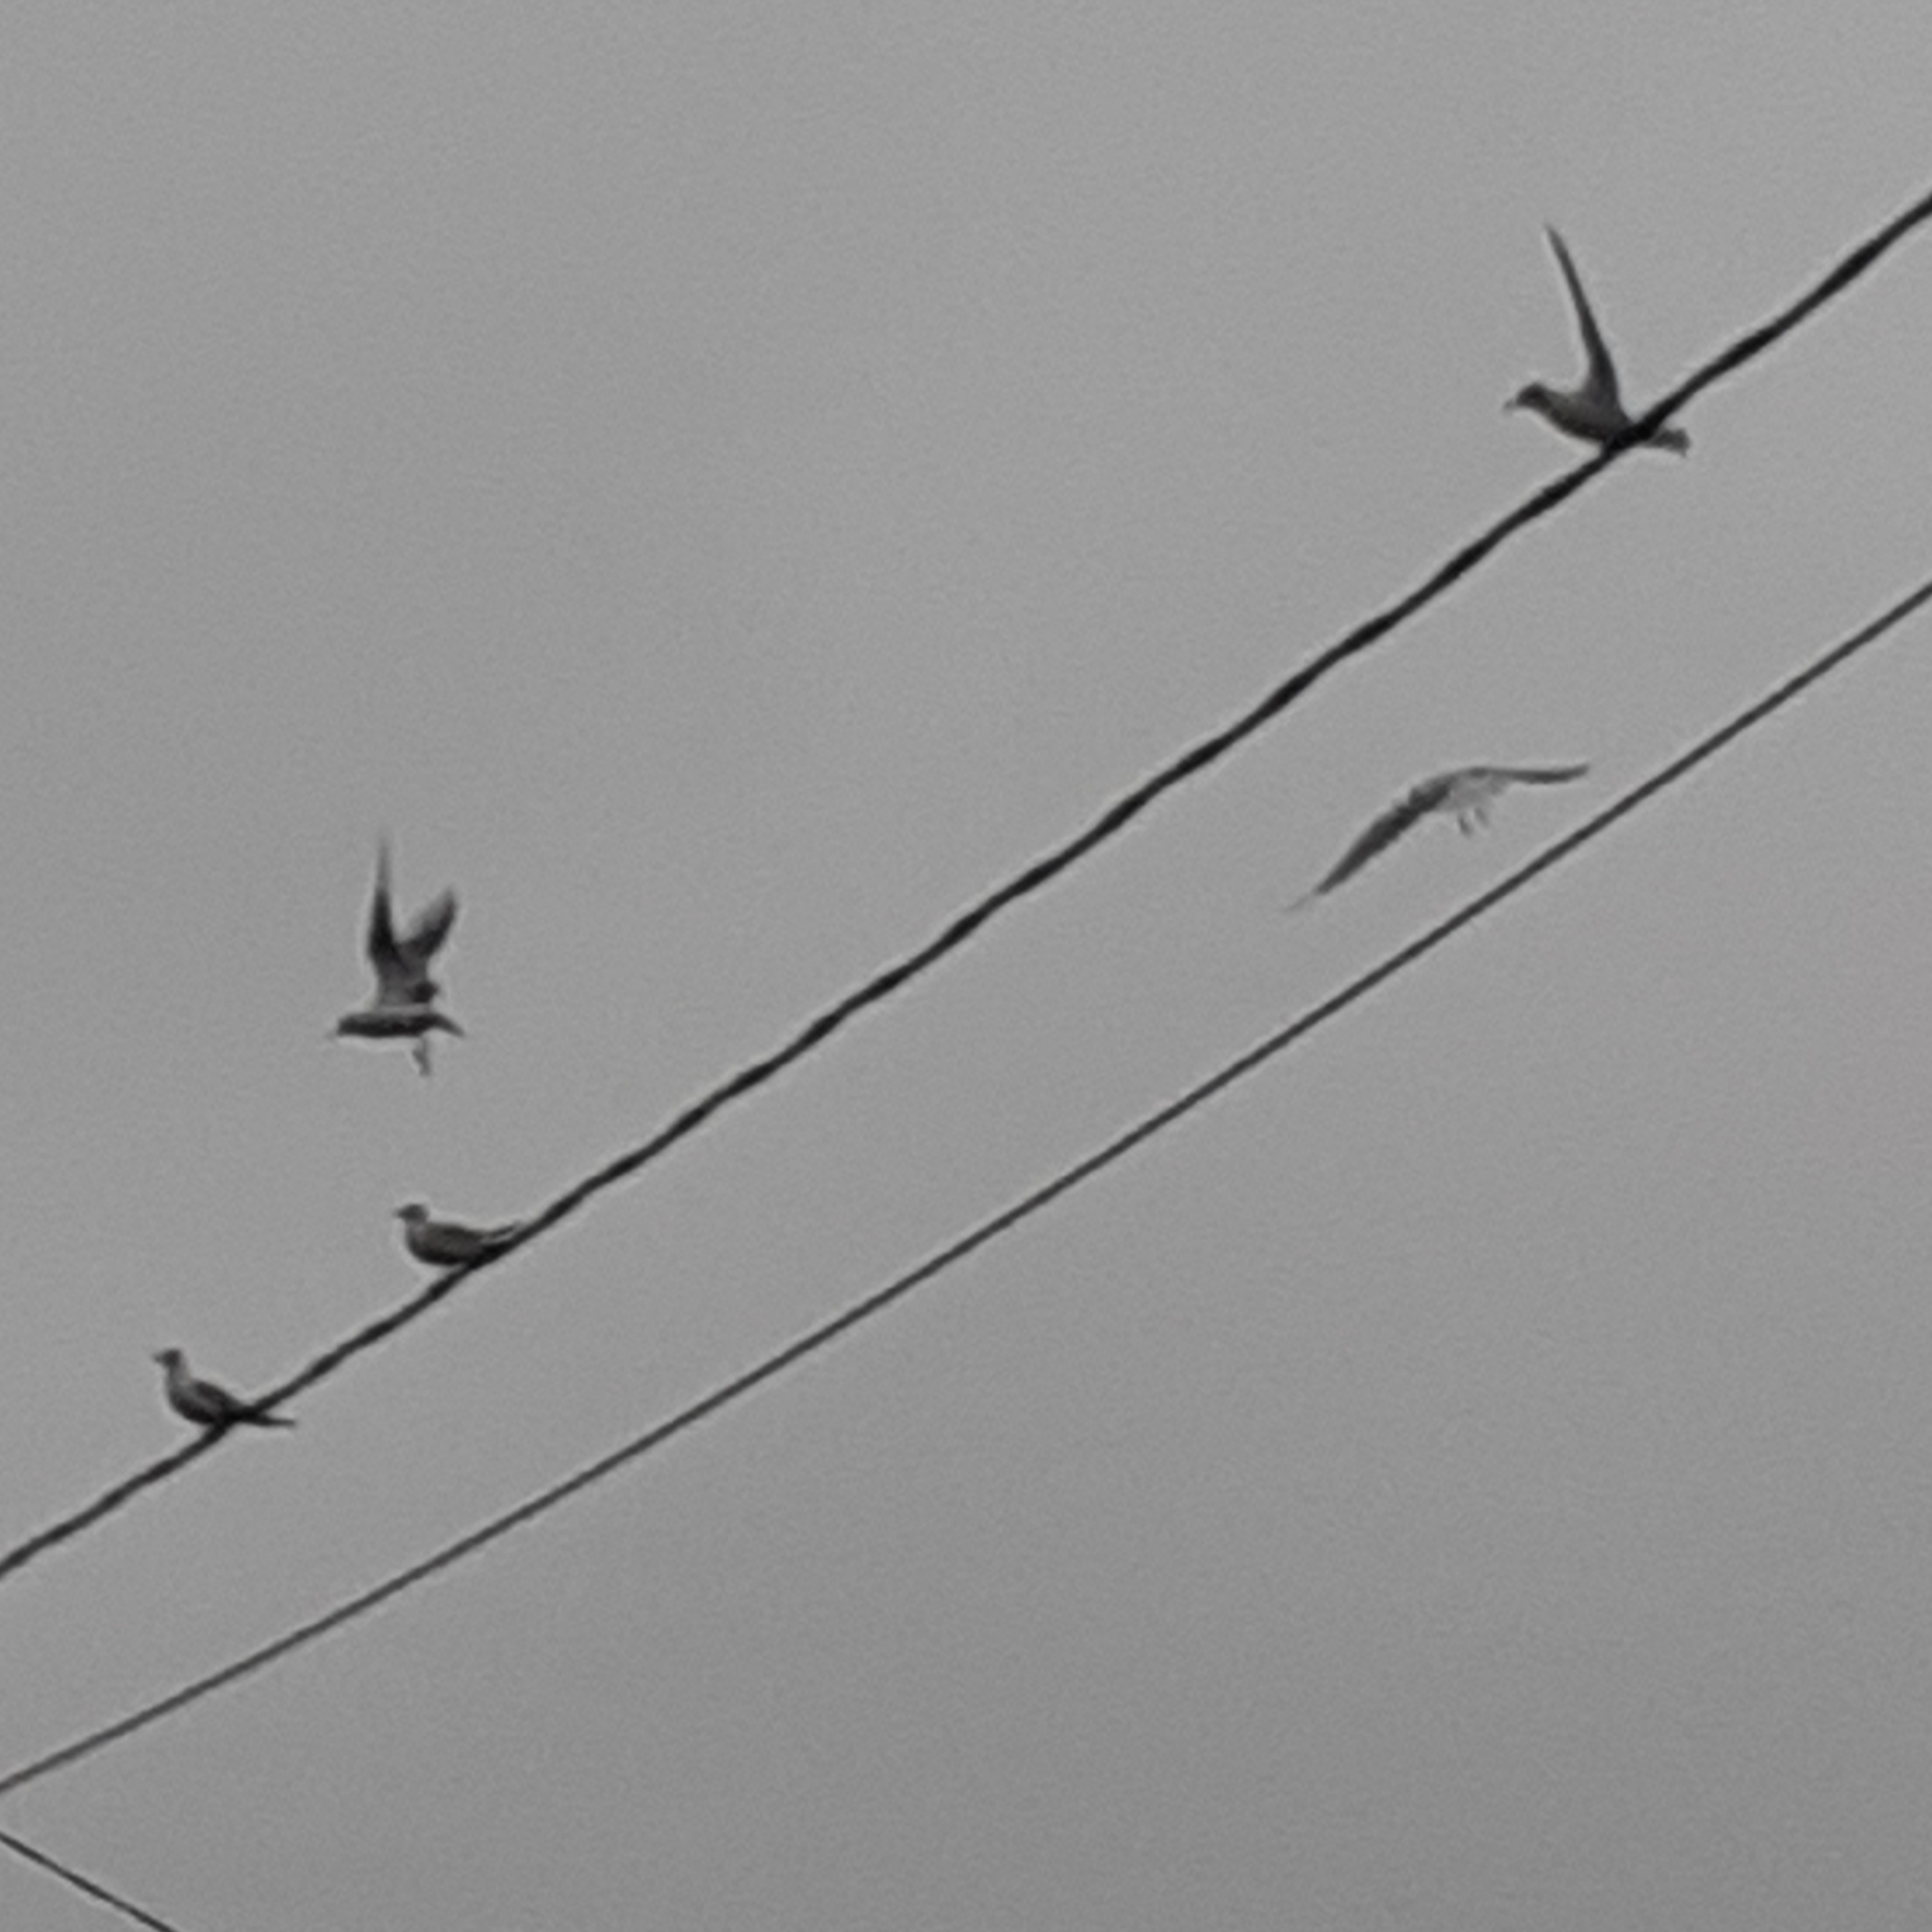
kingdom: Animalia
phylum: Chordata
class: Aves
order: Charadriiformes
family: Laridae
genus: Chroicocephalus
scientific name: Chroicocephalus ridibundus
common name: Black-headed gull
